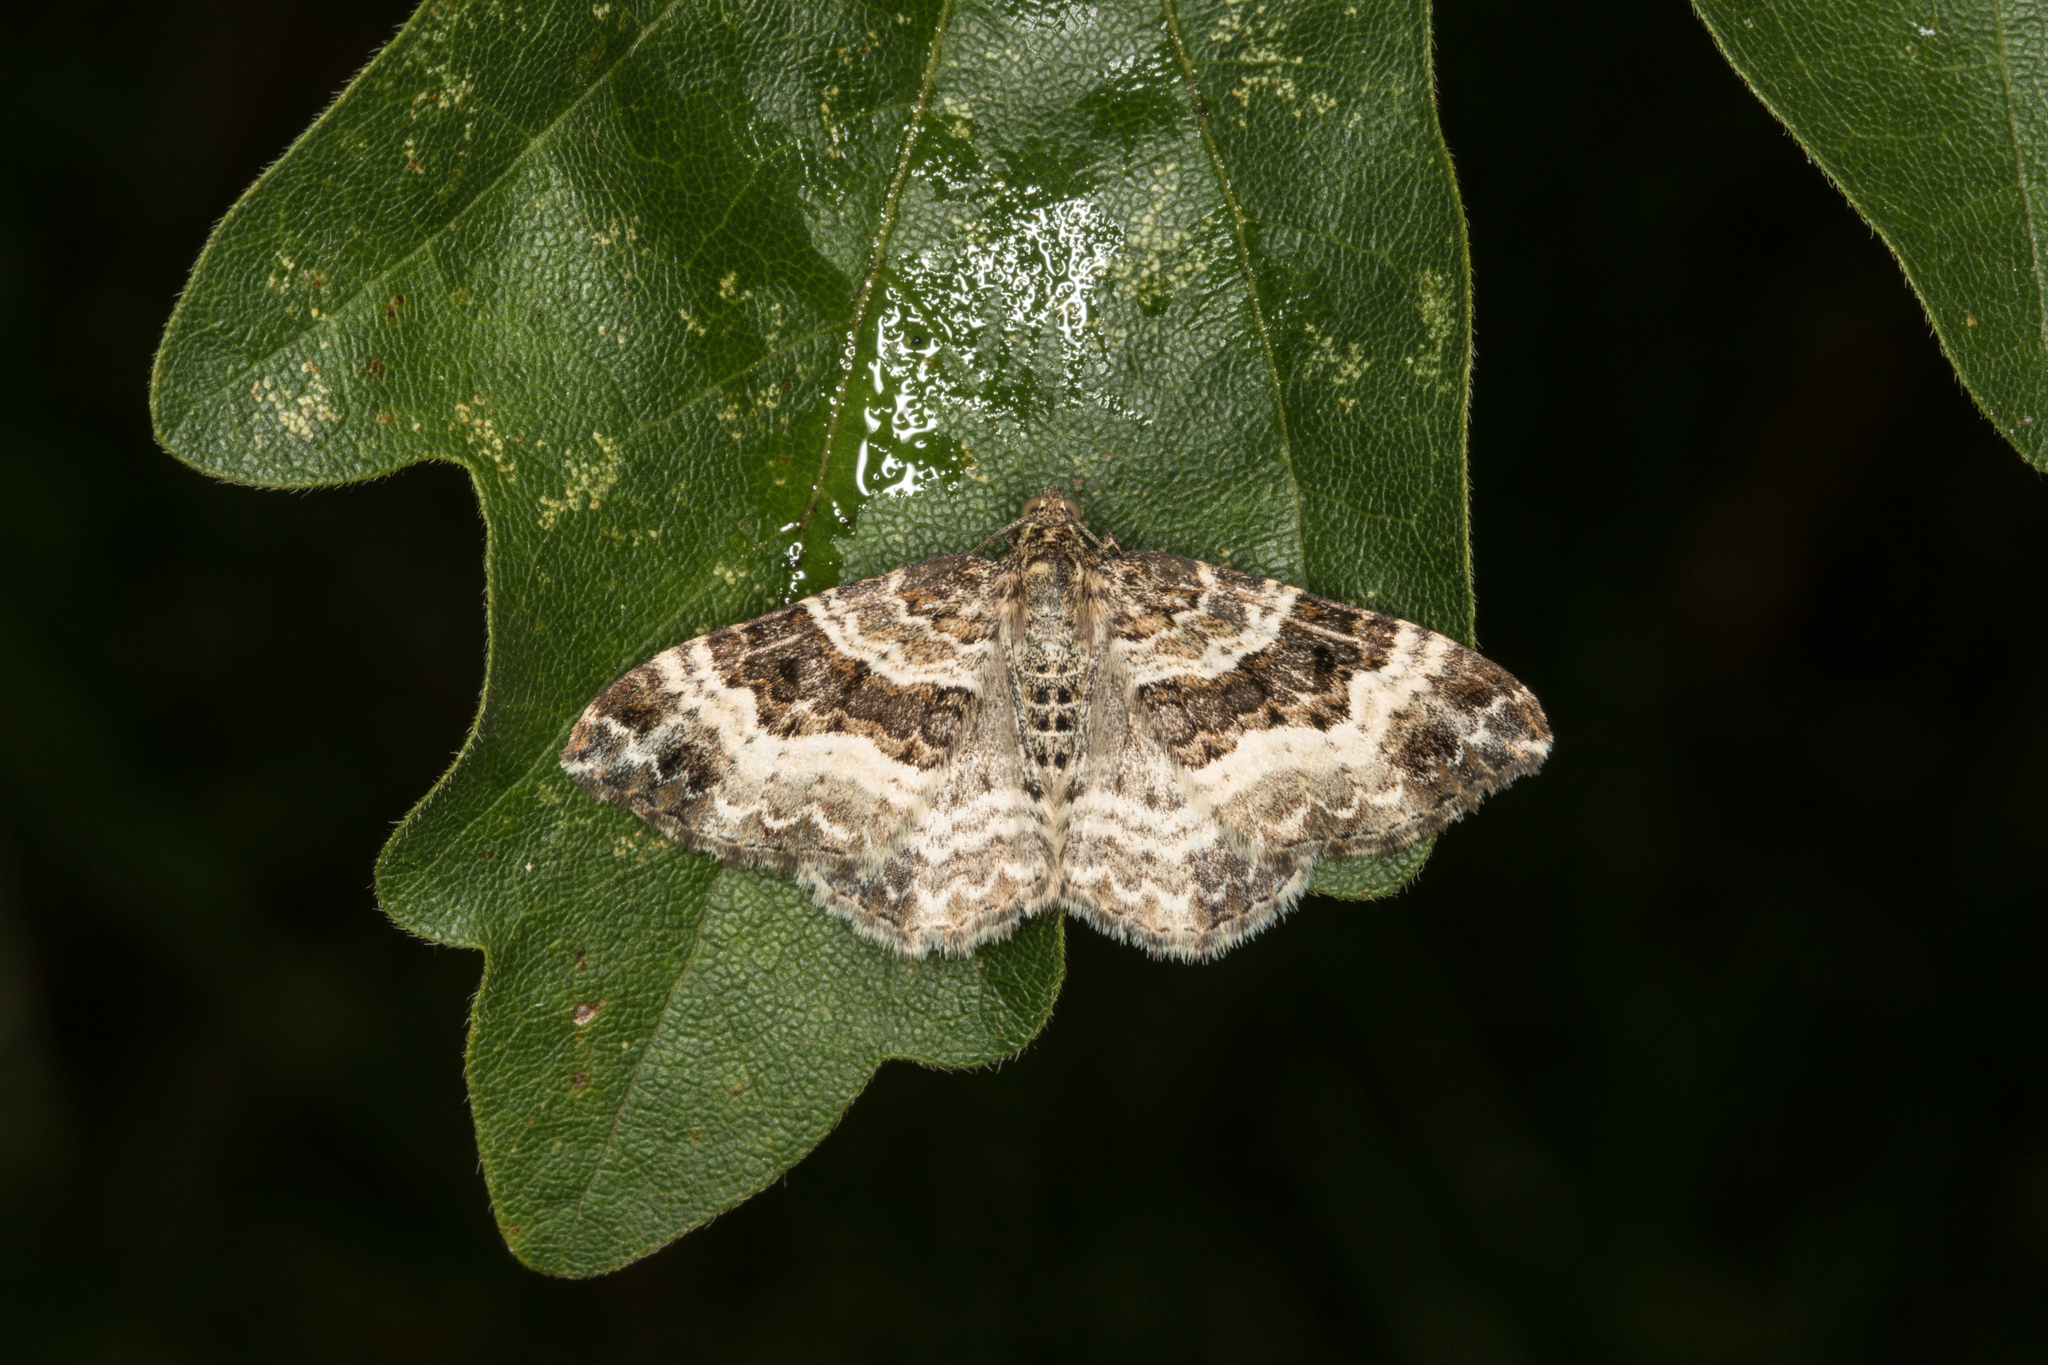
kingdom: Animalia
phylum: Arthropoda
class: Insecta
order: Lepidoptera
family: Geometridae
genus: Epirrhoe
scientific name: Epirrhoe alternata
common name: Common carpet
